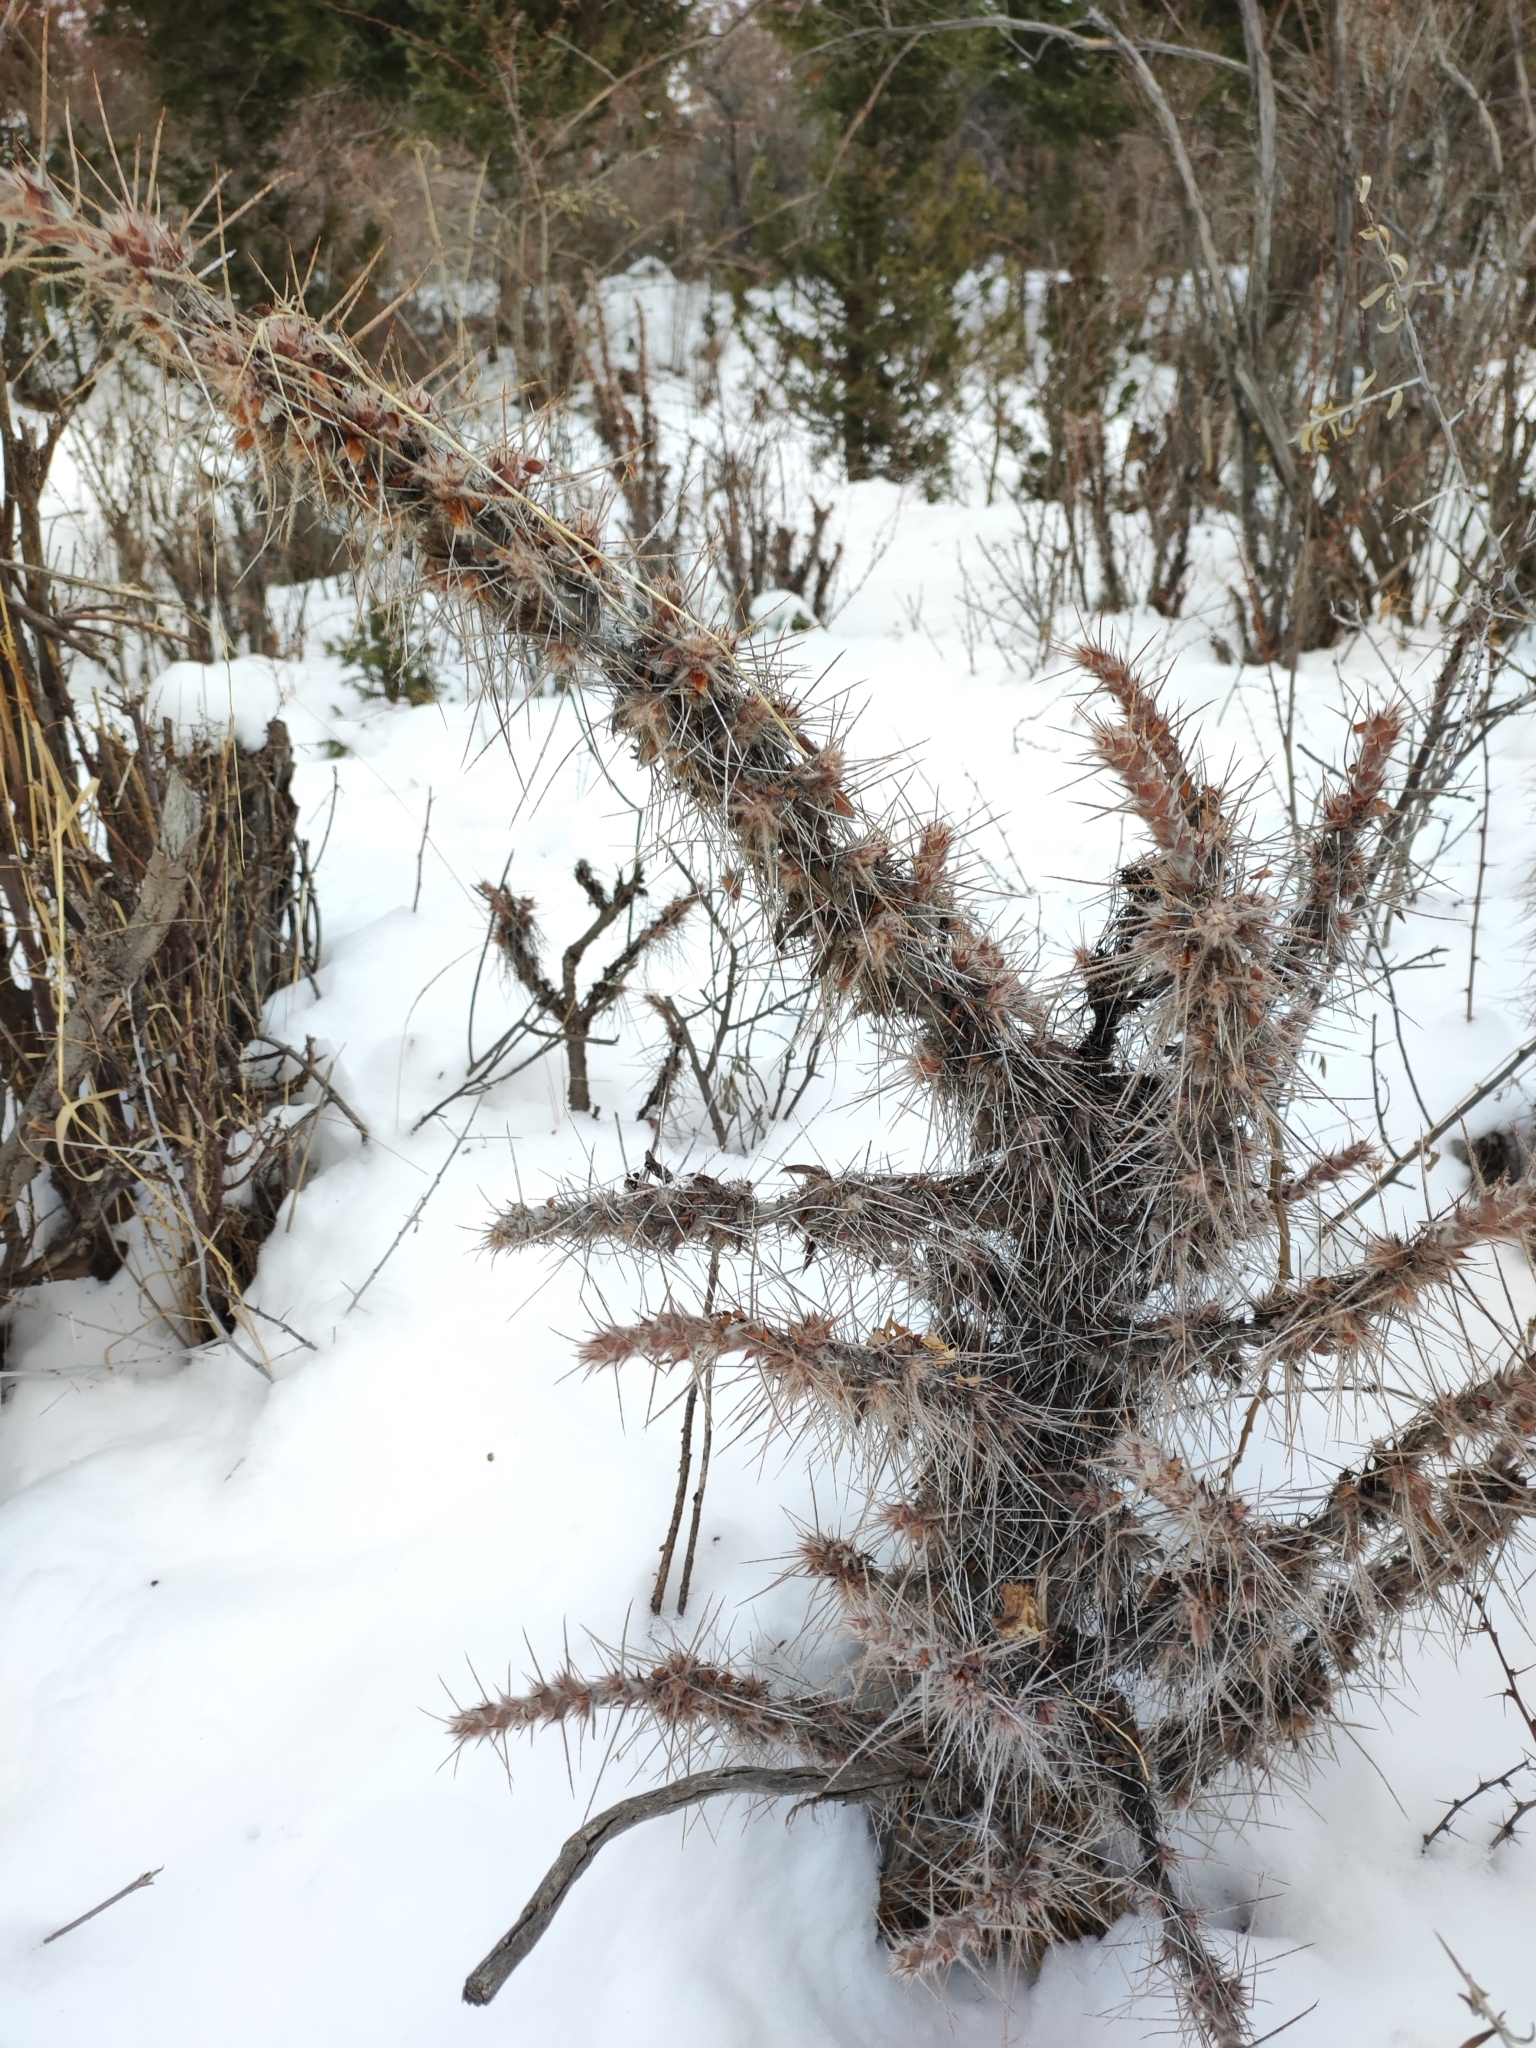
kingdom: Plantae
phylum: Tracheophyta
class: Magnoliopsida
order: Fabales
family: Fabaceae
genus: Caragana
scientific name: Caragana jubata
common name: Shag-spine peashrub
